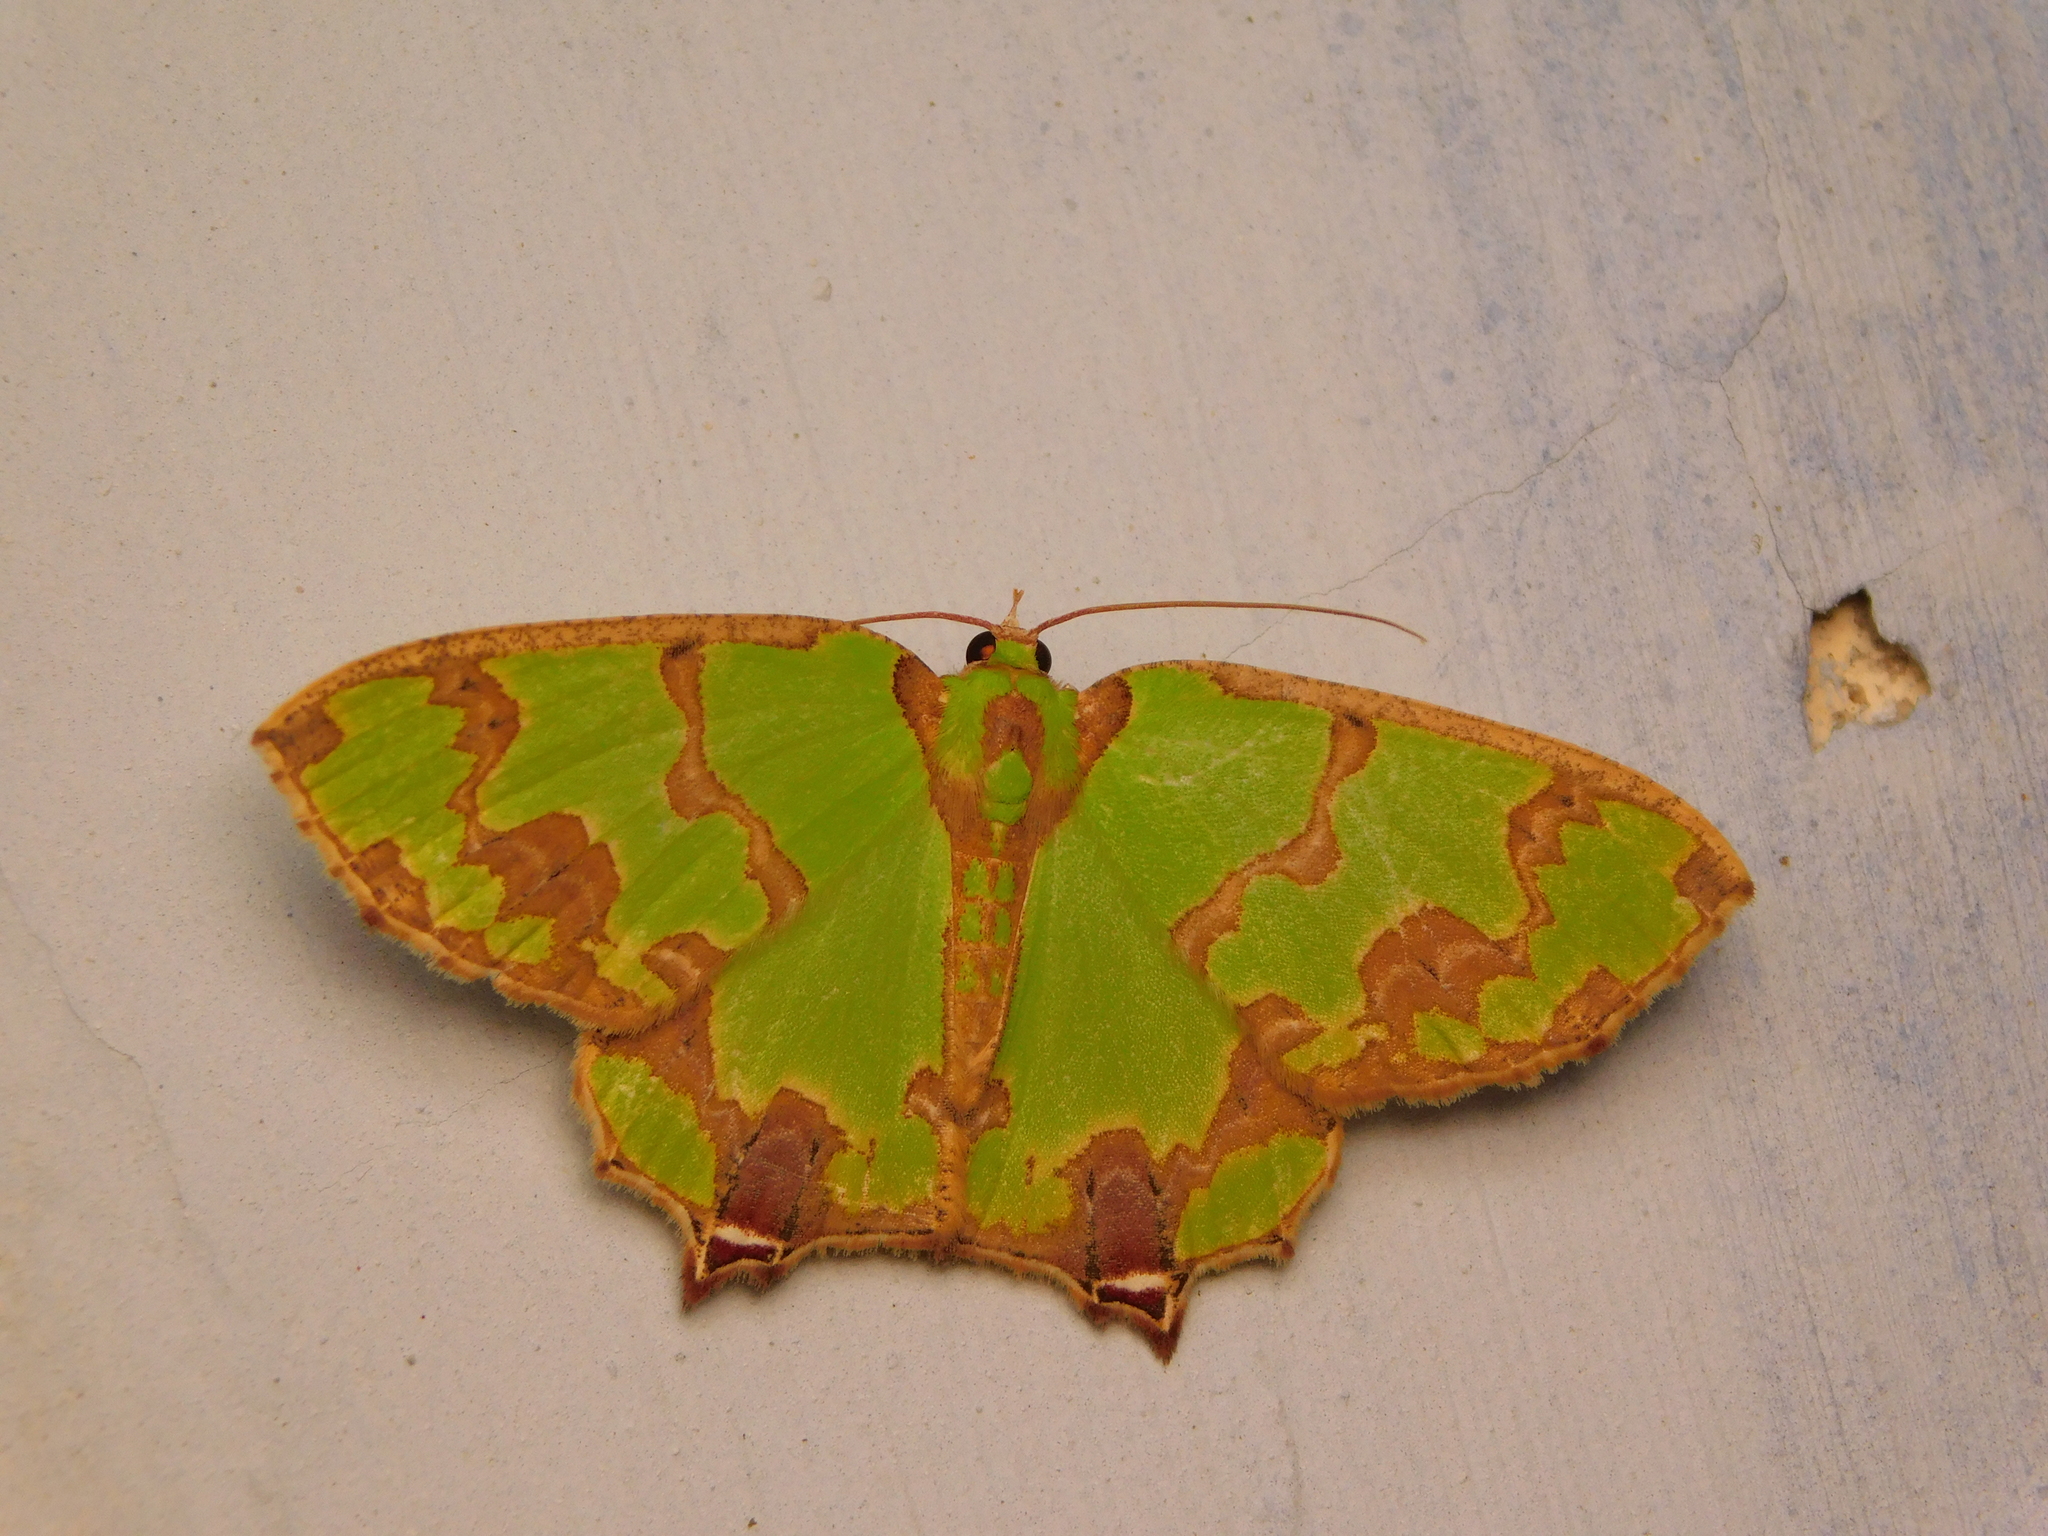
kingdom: Animalia
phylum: Arthropoda
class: Insecta
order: Lepidoptera
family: Geometridae
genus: Agathia
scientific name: Agathia hemithearia
